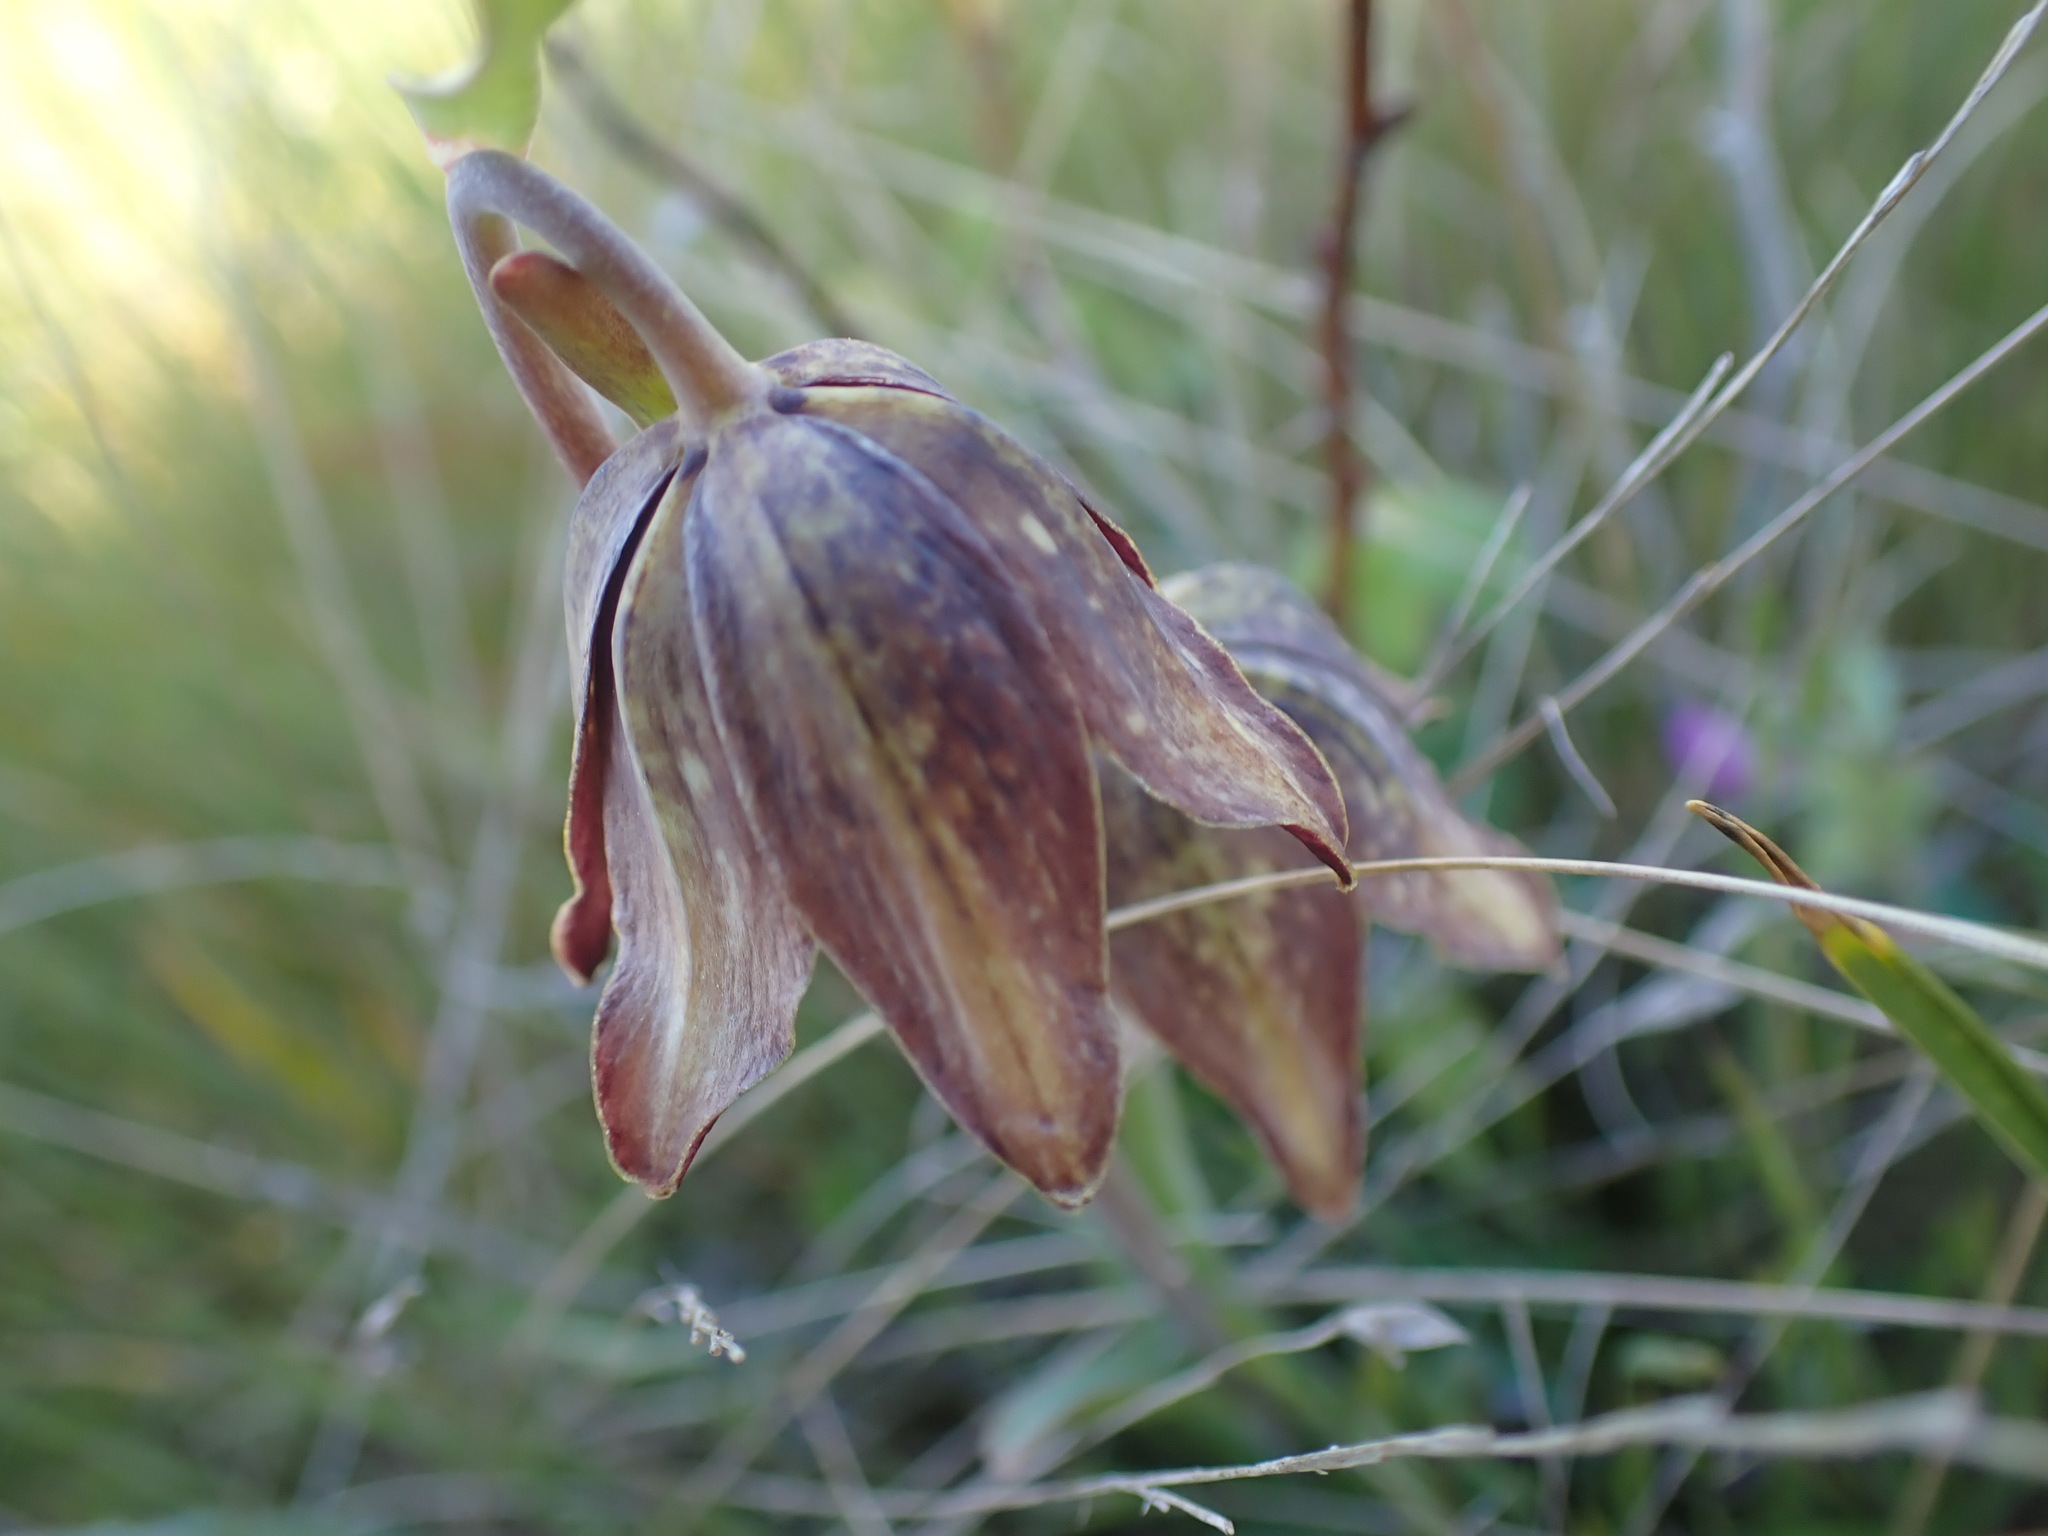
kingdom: Plantae
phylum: Tracheophyta
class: Liliopsida
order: Liliales
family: Liliaceae
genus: Fritillaria
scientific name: Fritillaria affinis
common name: Ojai fritillary
